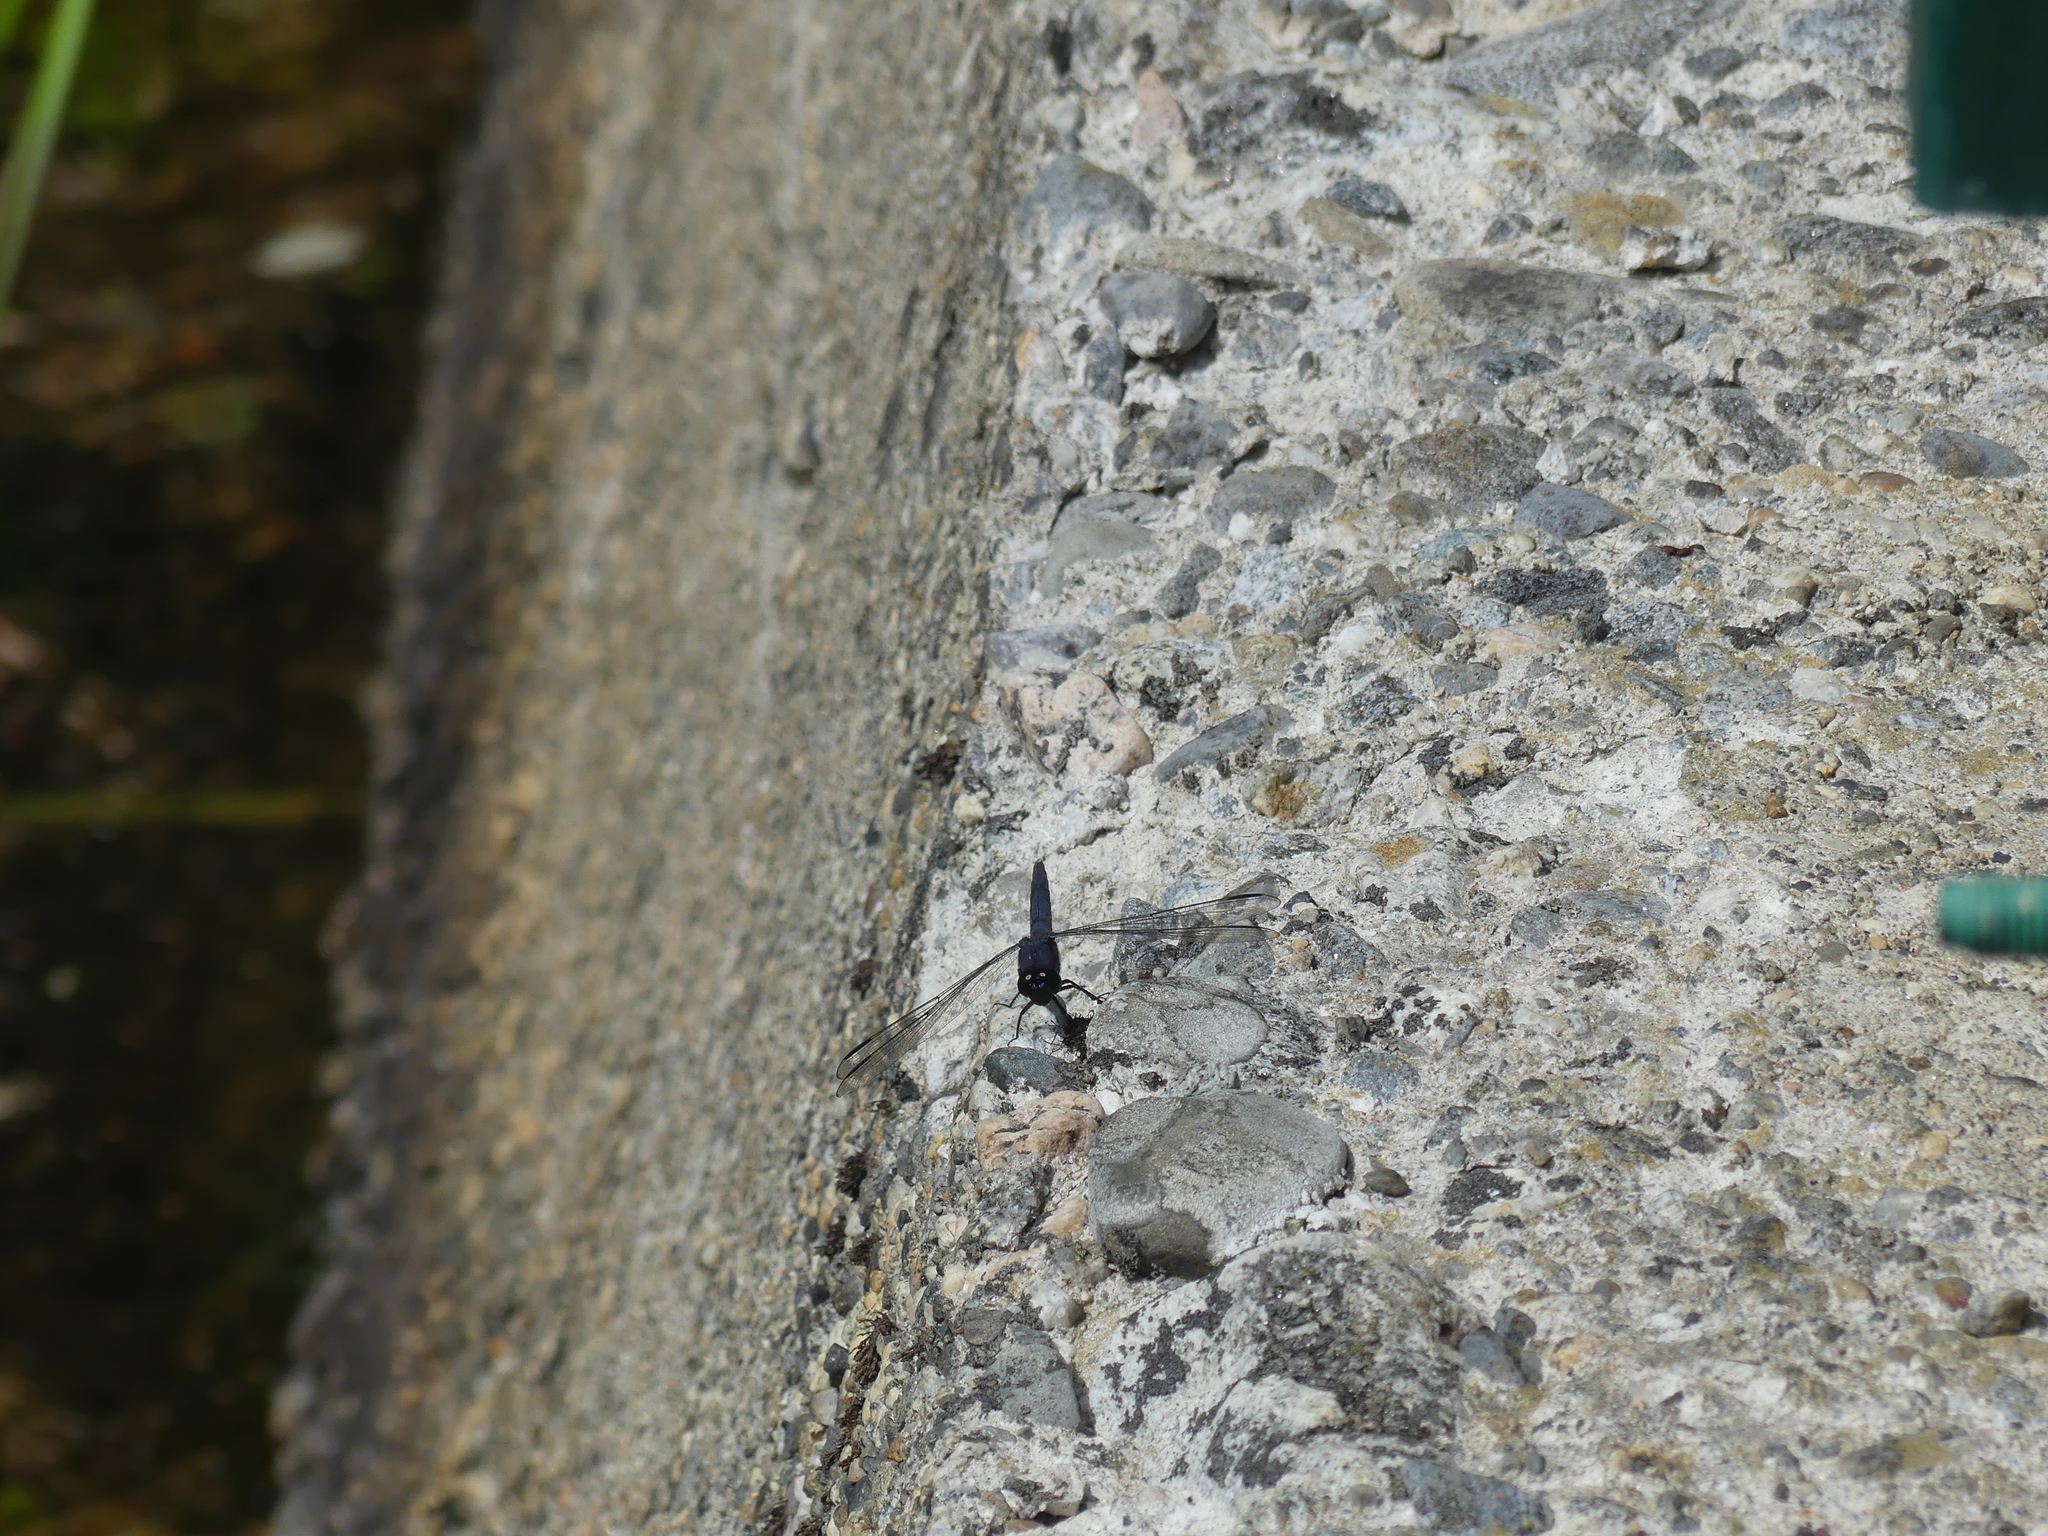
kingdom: Animalia
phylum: Arthropoda
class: Insecta
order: Odonata
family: Libellulidae
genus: Libellula
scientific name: Libellula incesta
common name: Slaty skimmer
